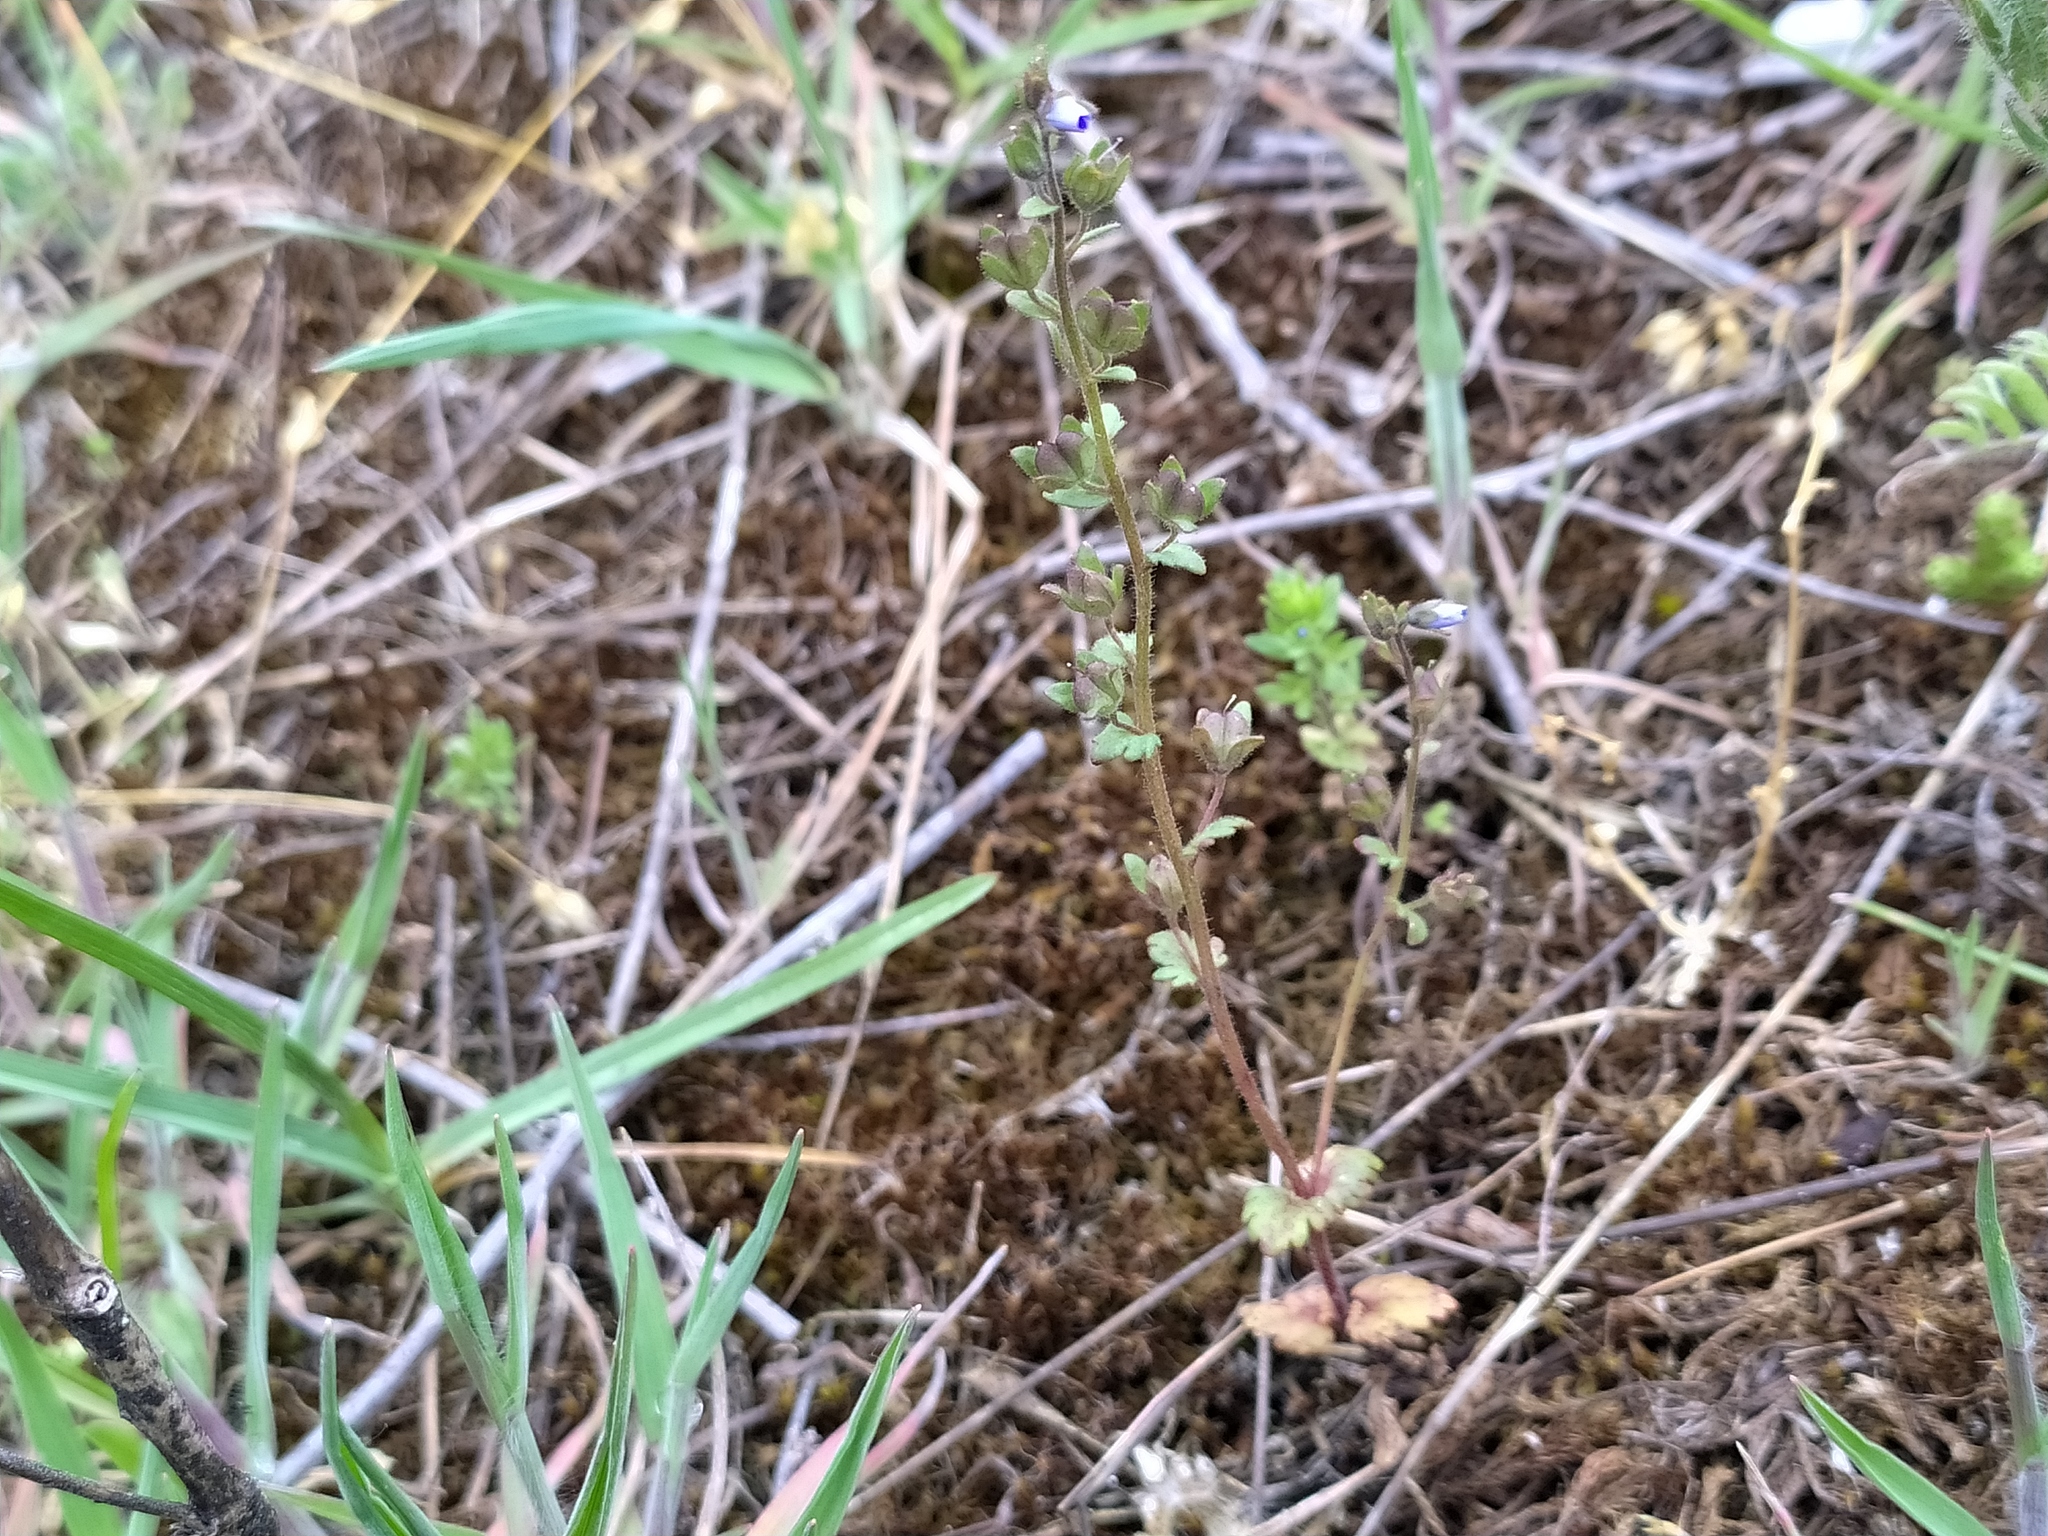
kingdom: Plantae
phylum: Tracheophyta
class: Magnoliopsida
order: Lamiales
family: Plantaginaceae
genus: Veronica
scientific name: Veronica praecox
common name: Breckland speedwell
